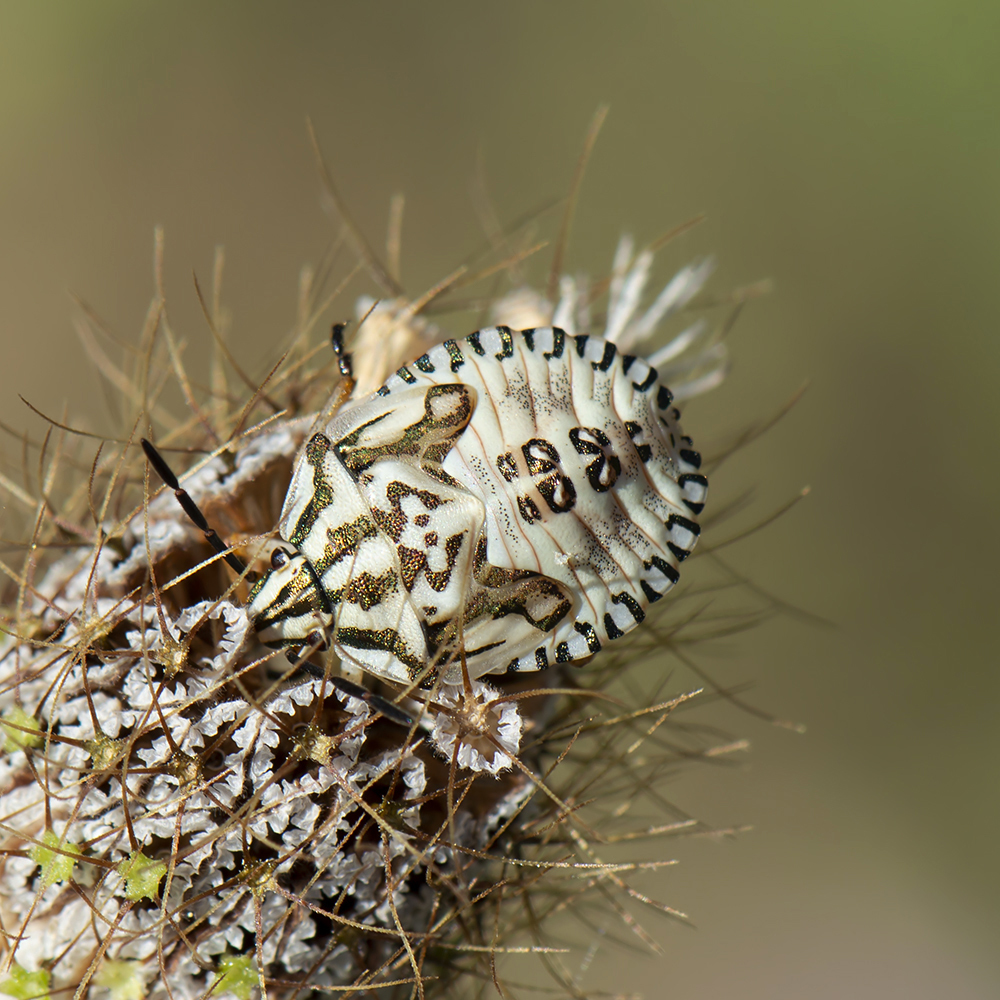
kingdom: Animalia
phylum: Arthropoda
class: Insecta
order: Hemiptera
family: Pentatomidae
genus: Carpocoris
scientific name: Carpocoris mediterraneus
